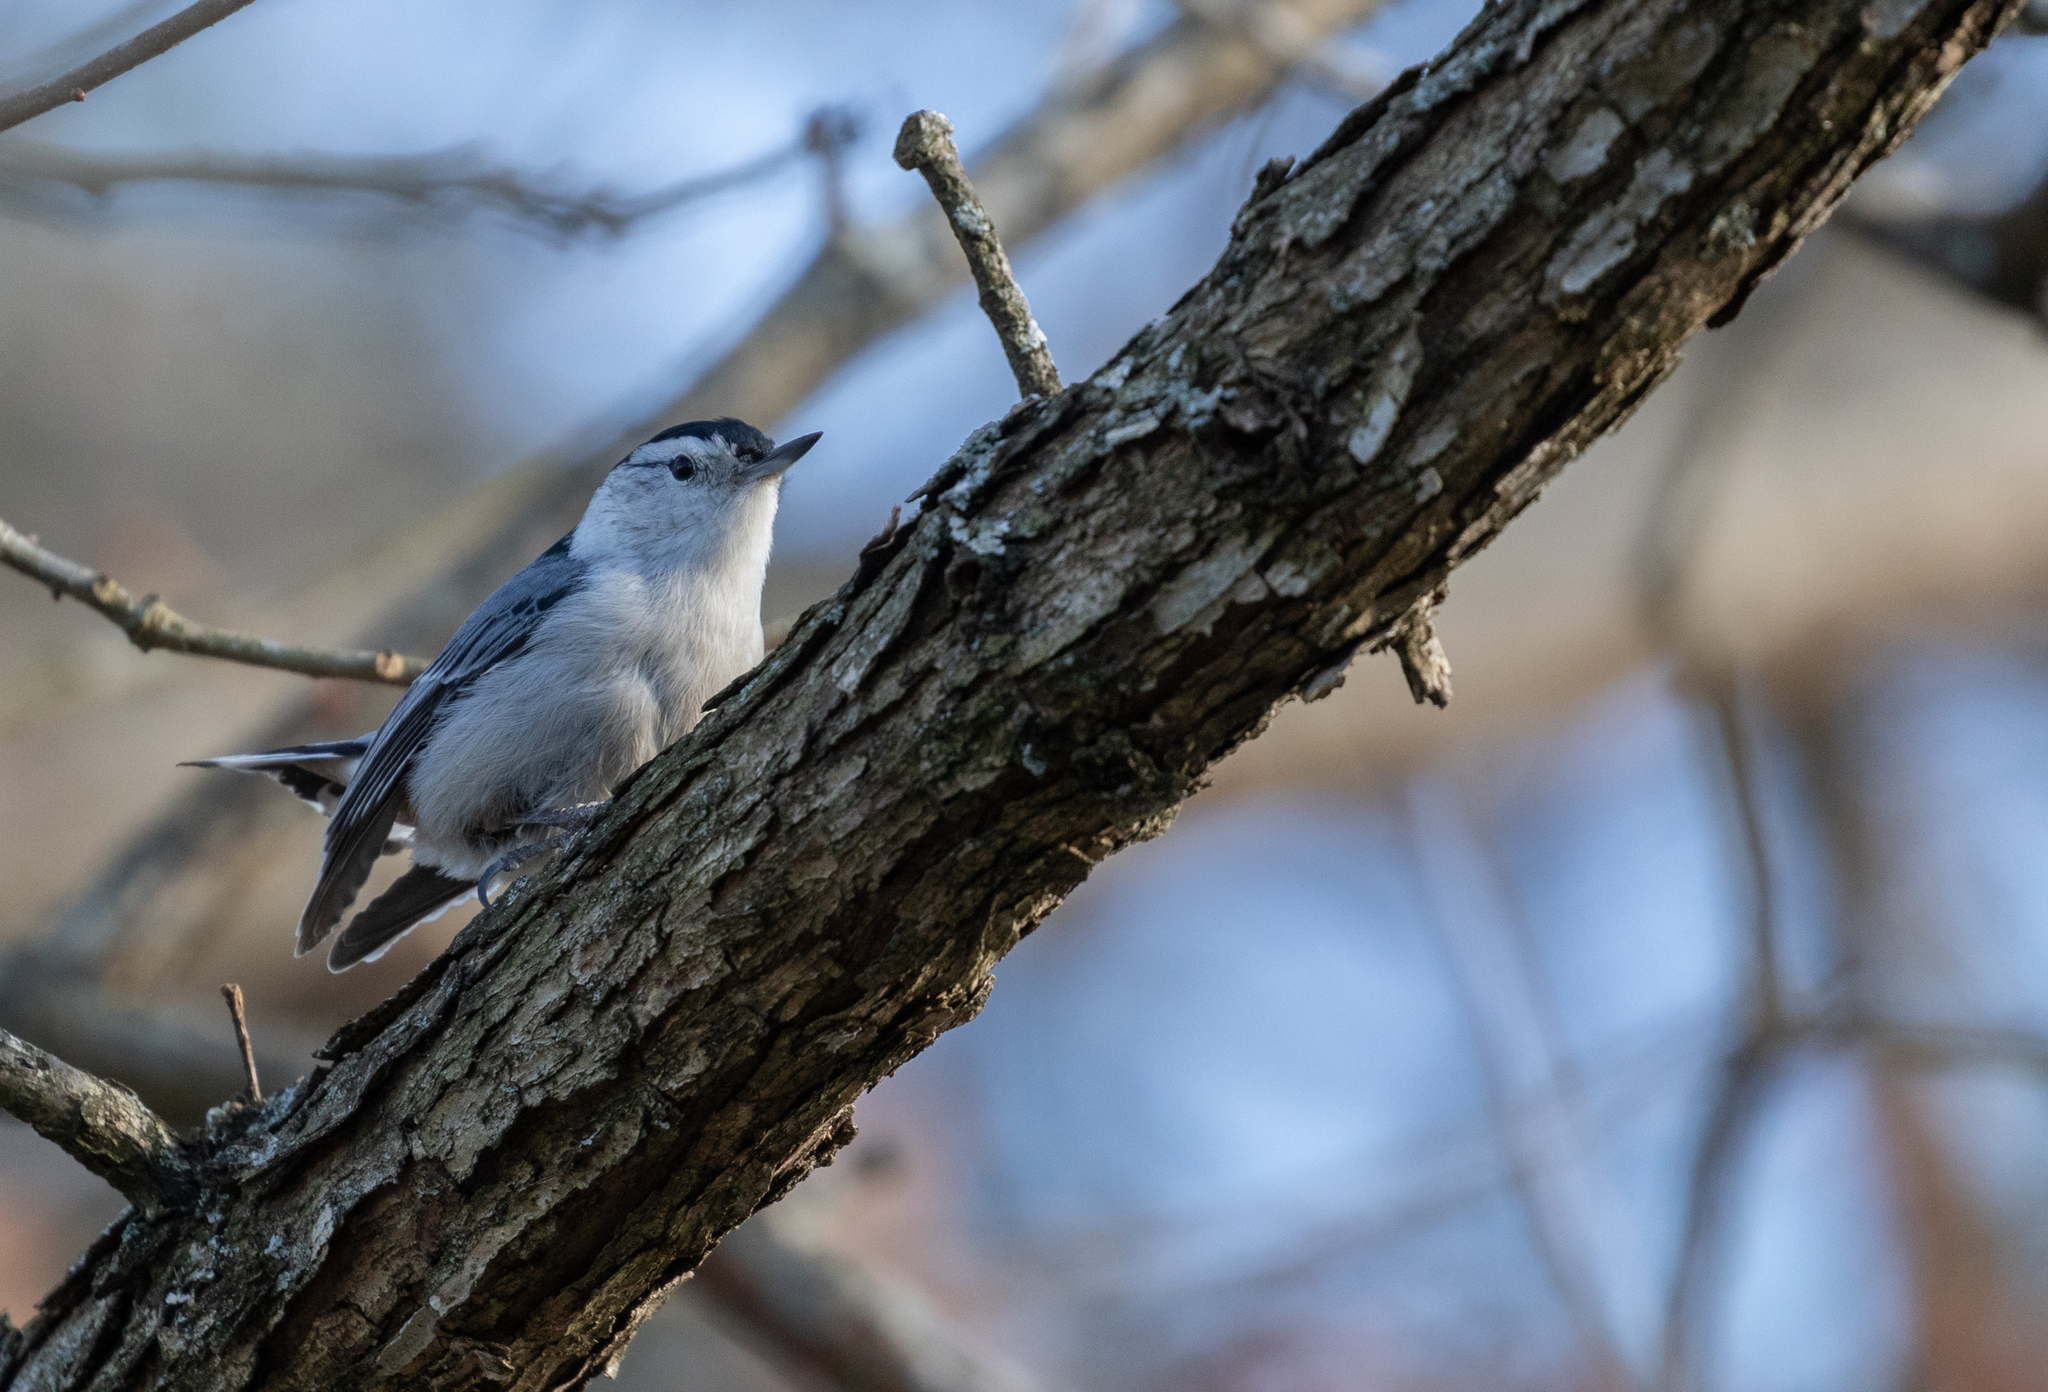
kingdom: Animalia
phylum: Chordata
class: Aves
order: Passeriformes
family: Sittidae
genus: Sitta
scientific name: Sitta carolinensis
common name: White-breasted nuthatch
